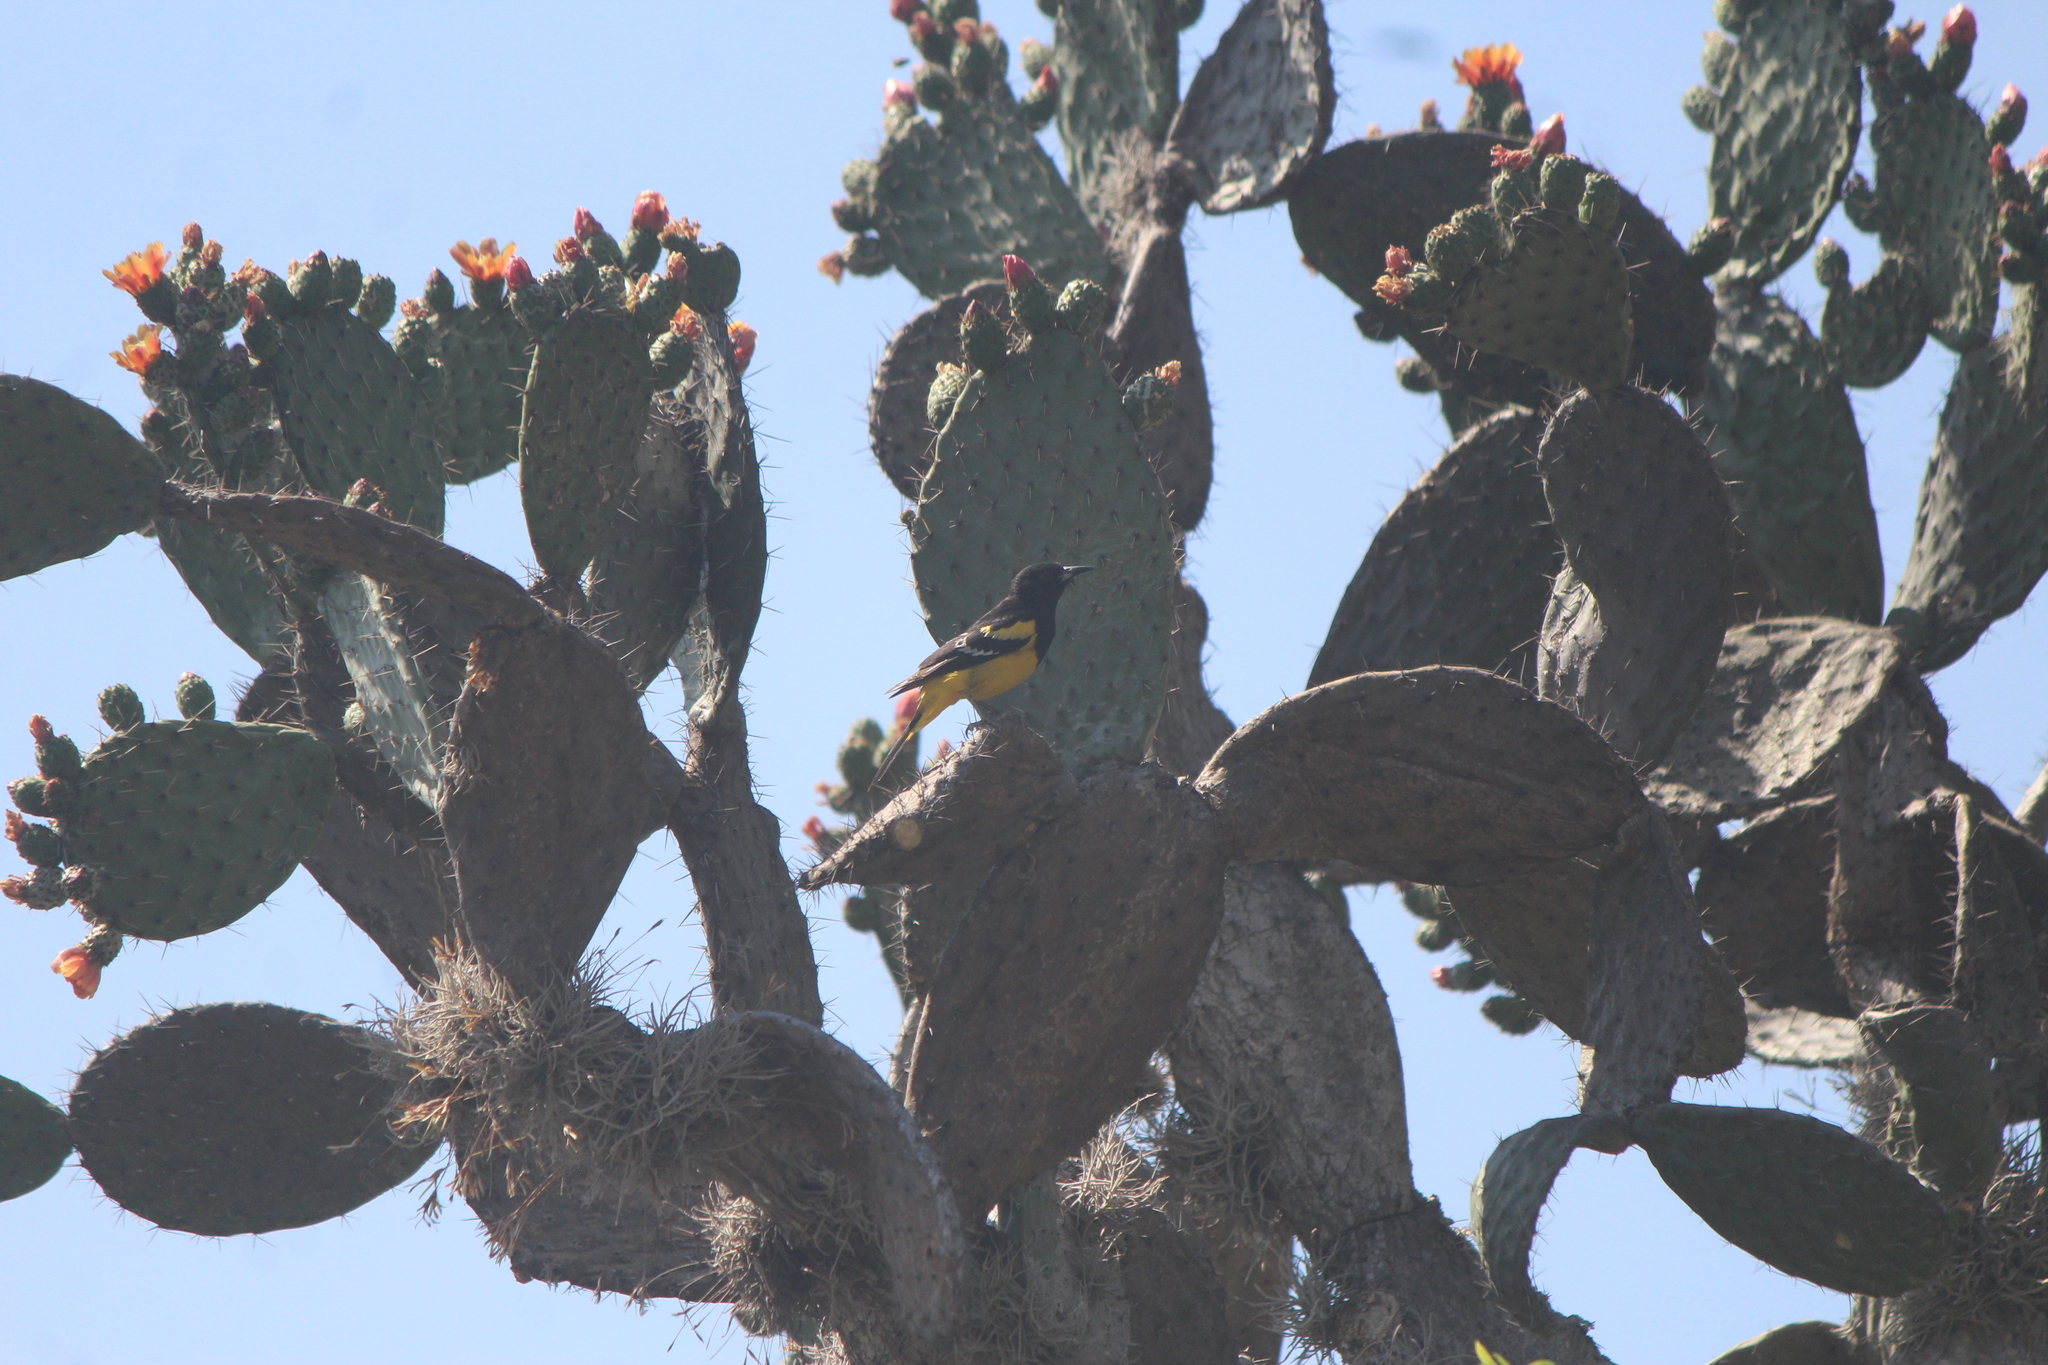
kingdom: Animalia
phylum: Chordata
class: Aves
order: Passeriformes
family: Icteridae
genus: Icterus
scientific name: Icterus parisorum
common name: Scott's oriole
